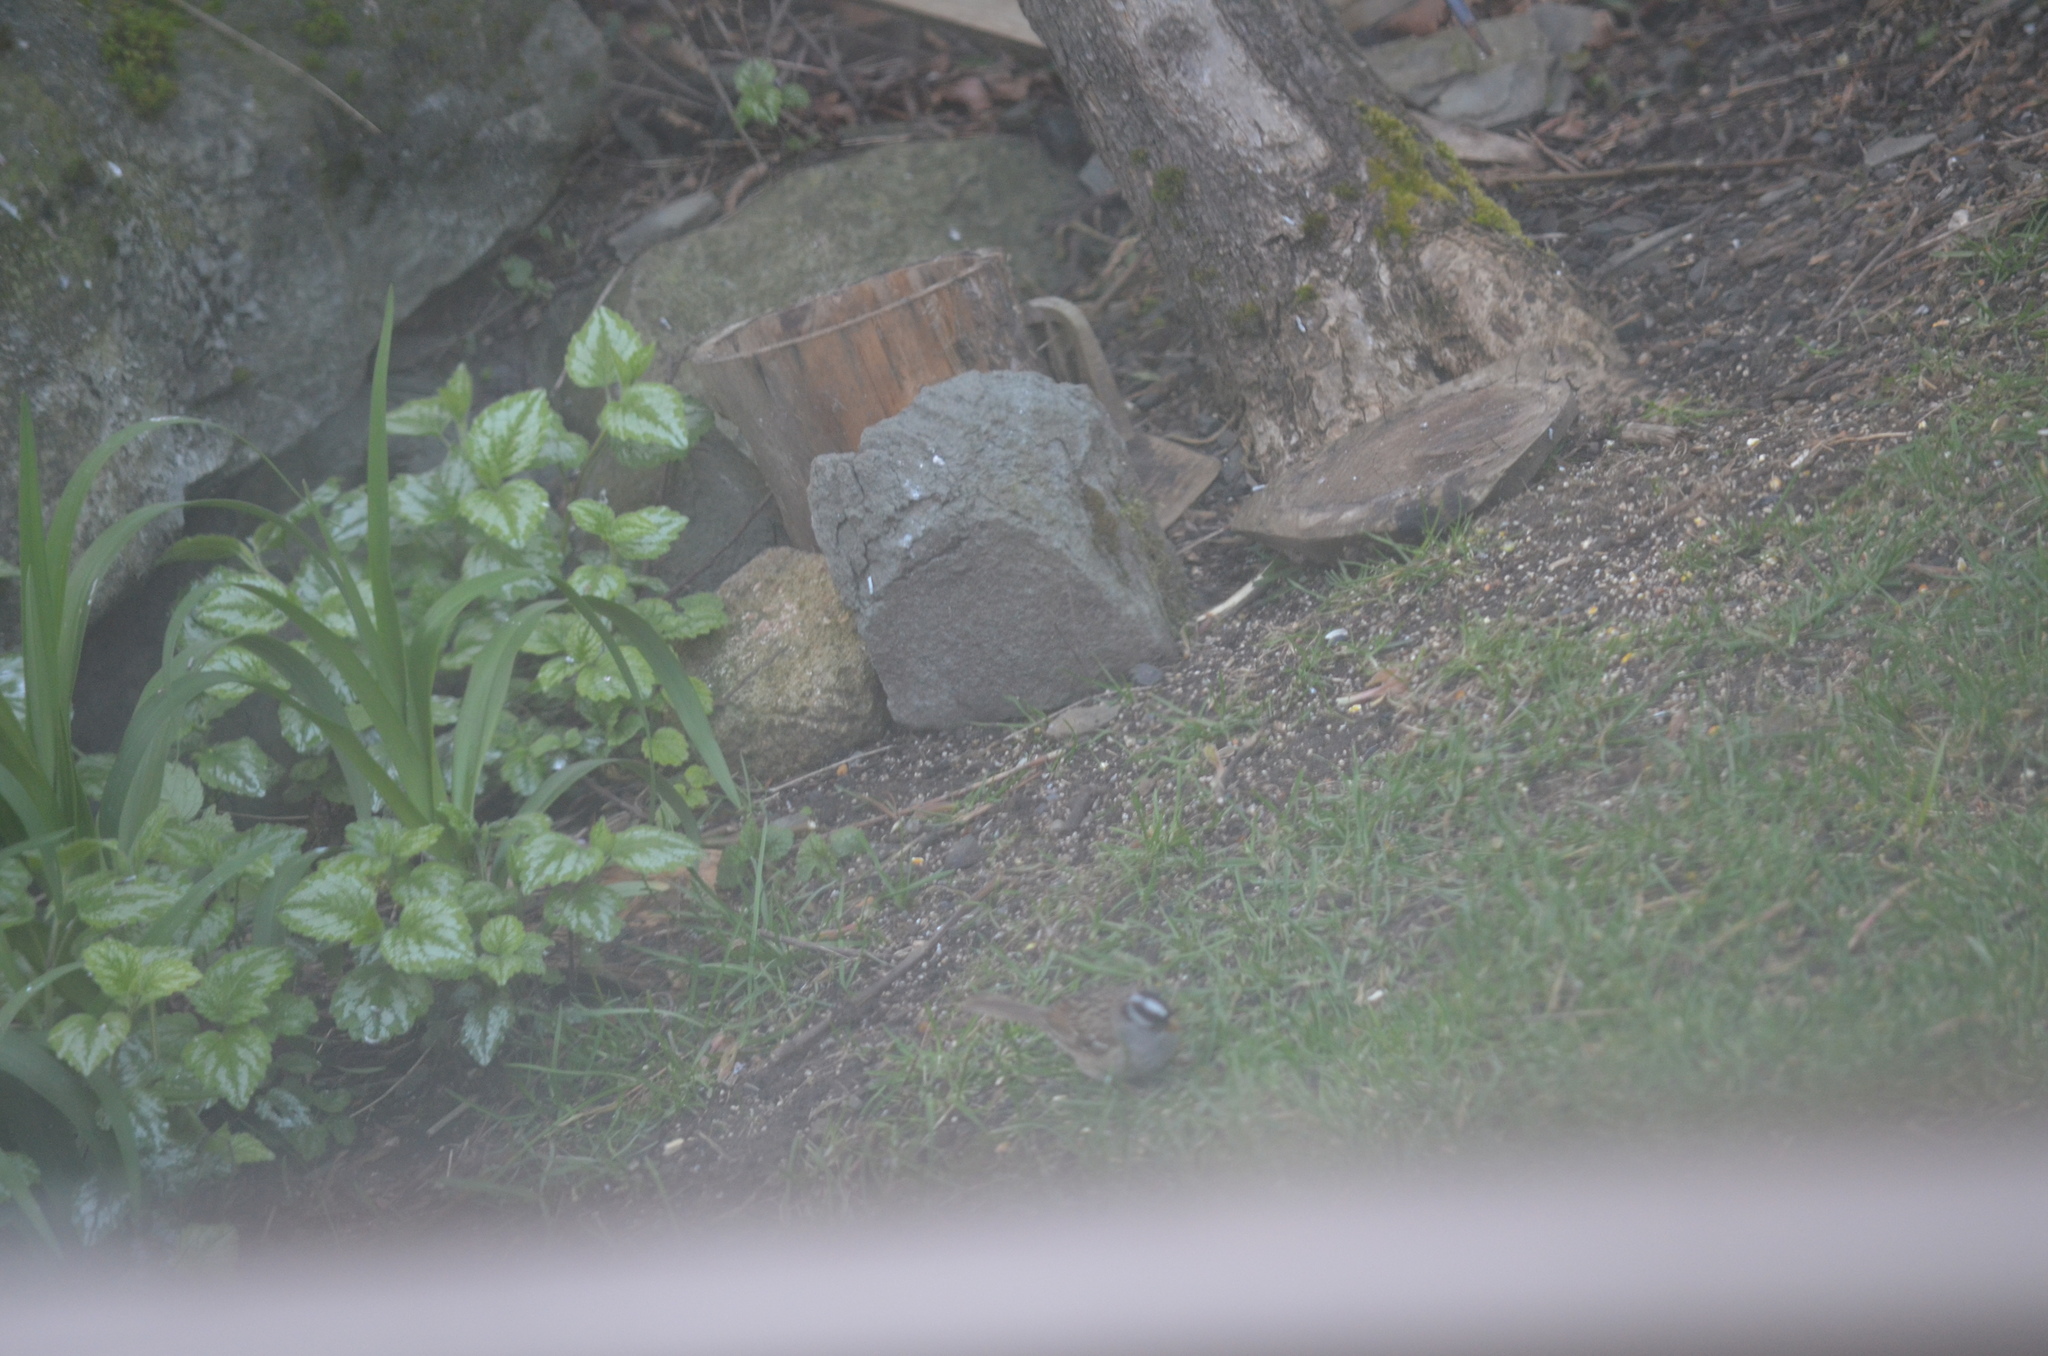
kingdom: Animalia
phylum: Chordata
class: Aves
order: Passeriformes
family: Passerellidae
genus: Zonotrichia
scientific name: Zonotrichia leucophrys
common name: White-crowned sparrow
